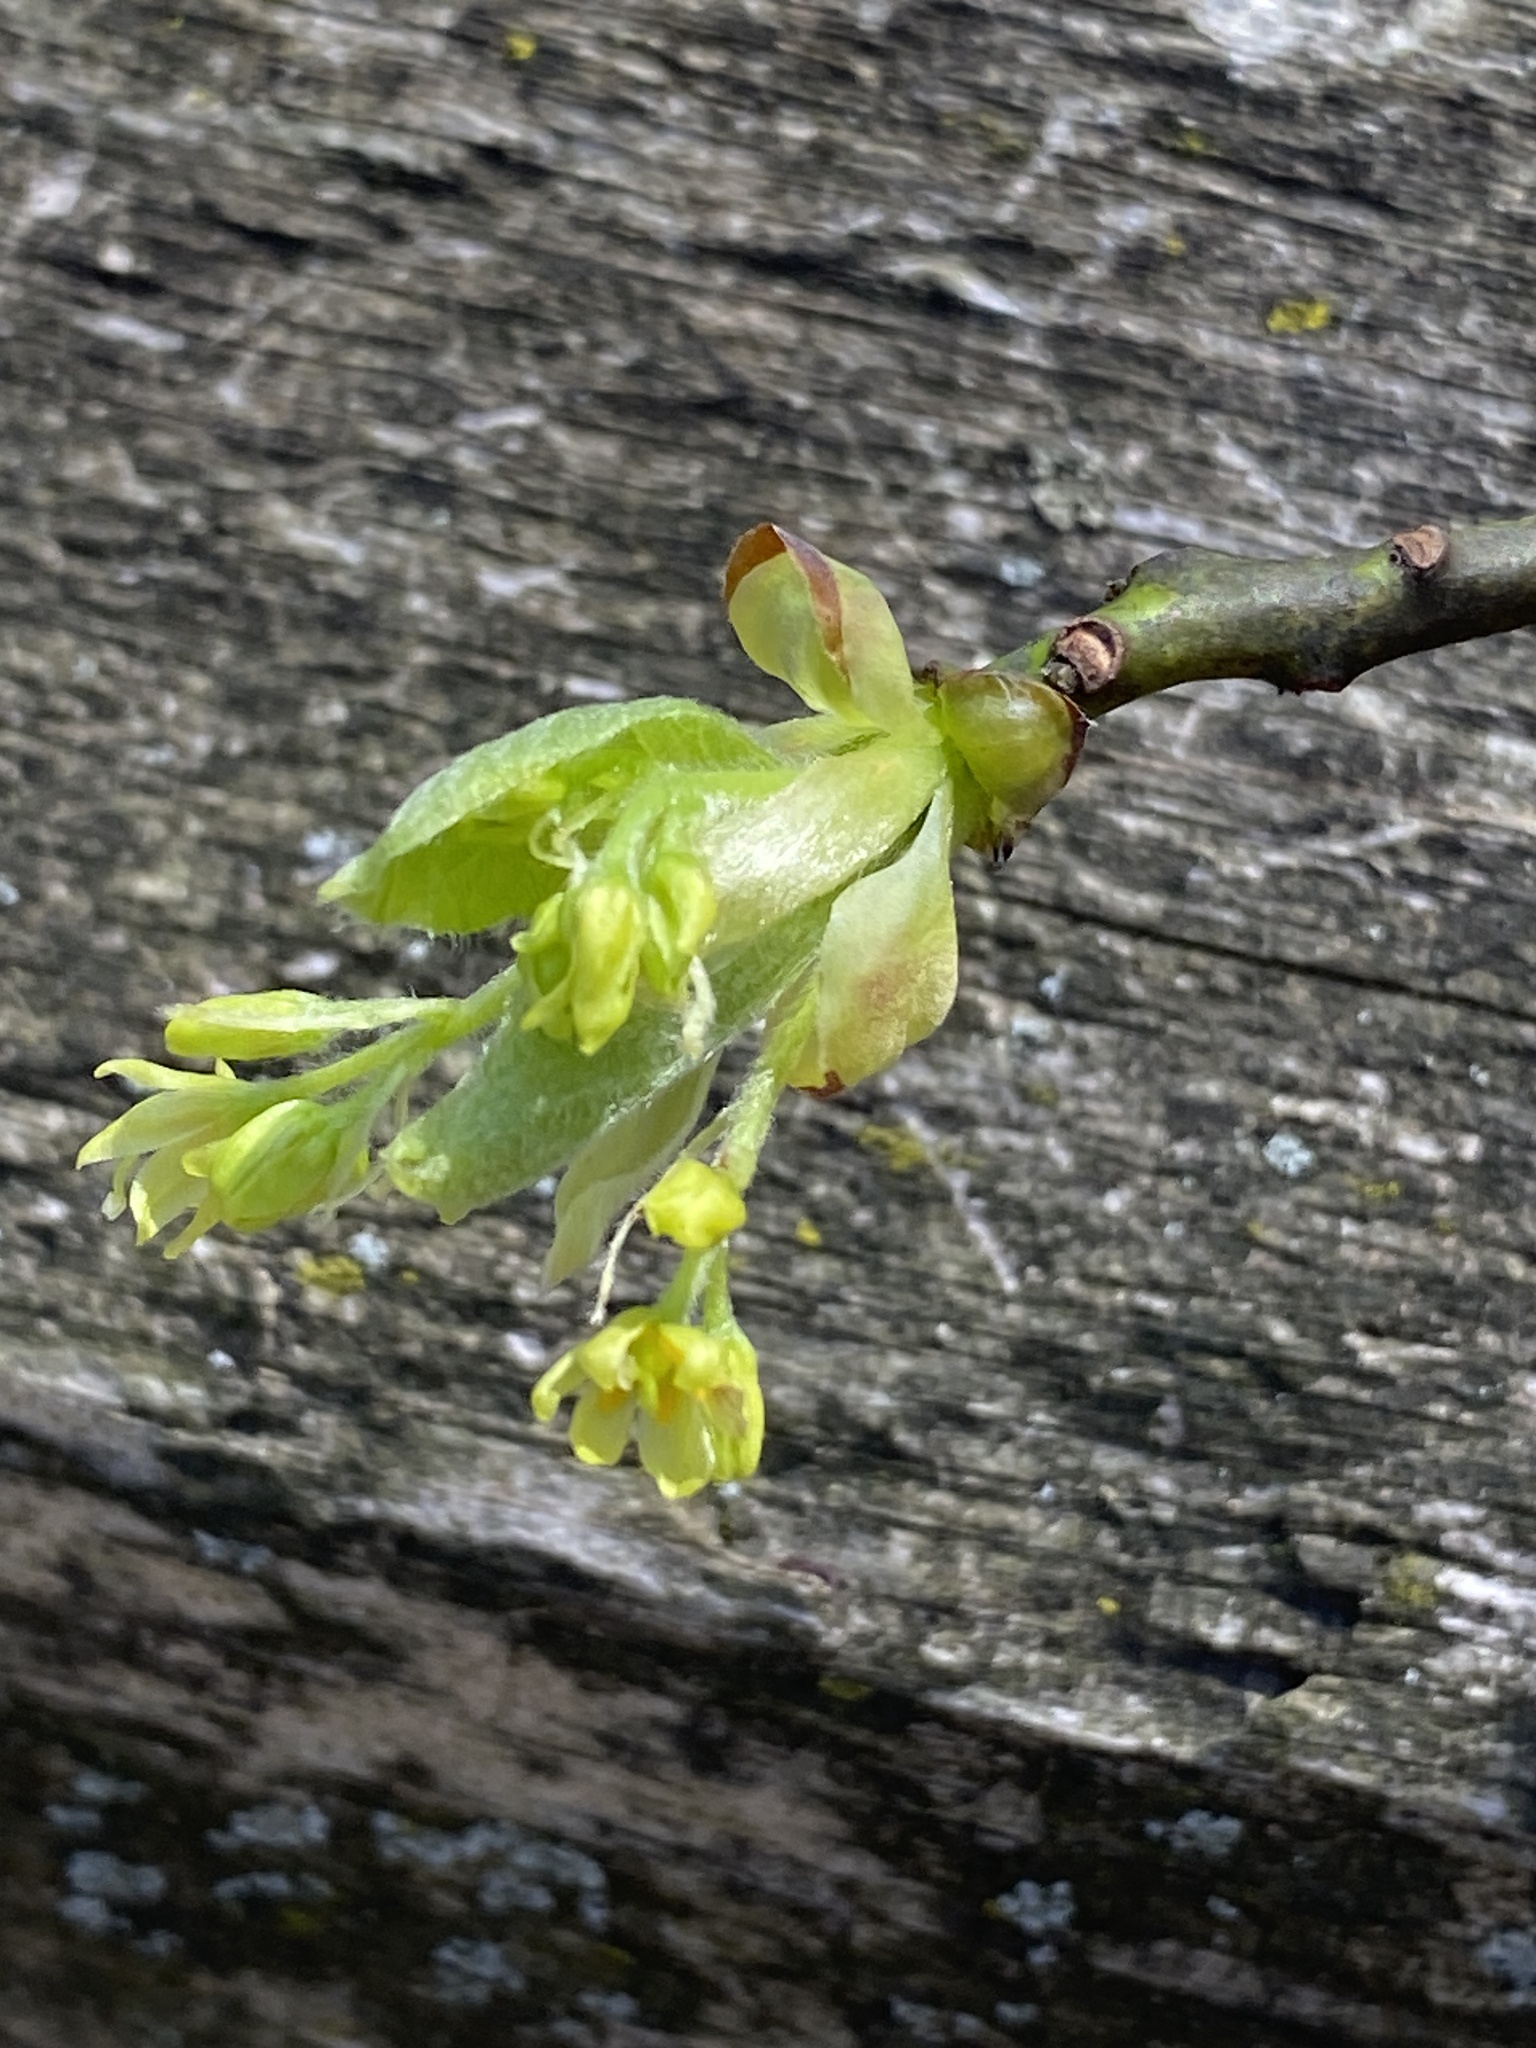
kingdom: Plantae
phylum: Tracheophyta
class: Magnoliopsida
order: Laurales
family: Lauraceae
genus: Sassafras
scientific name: Sassafras albidum
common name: Sassafras
